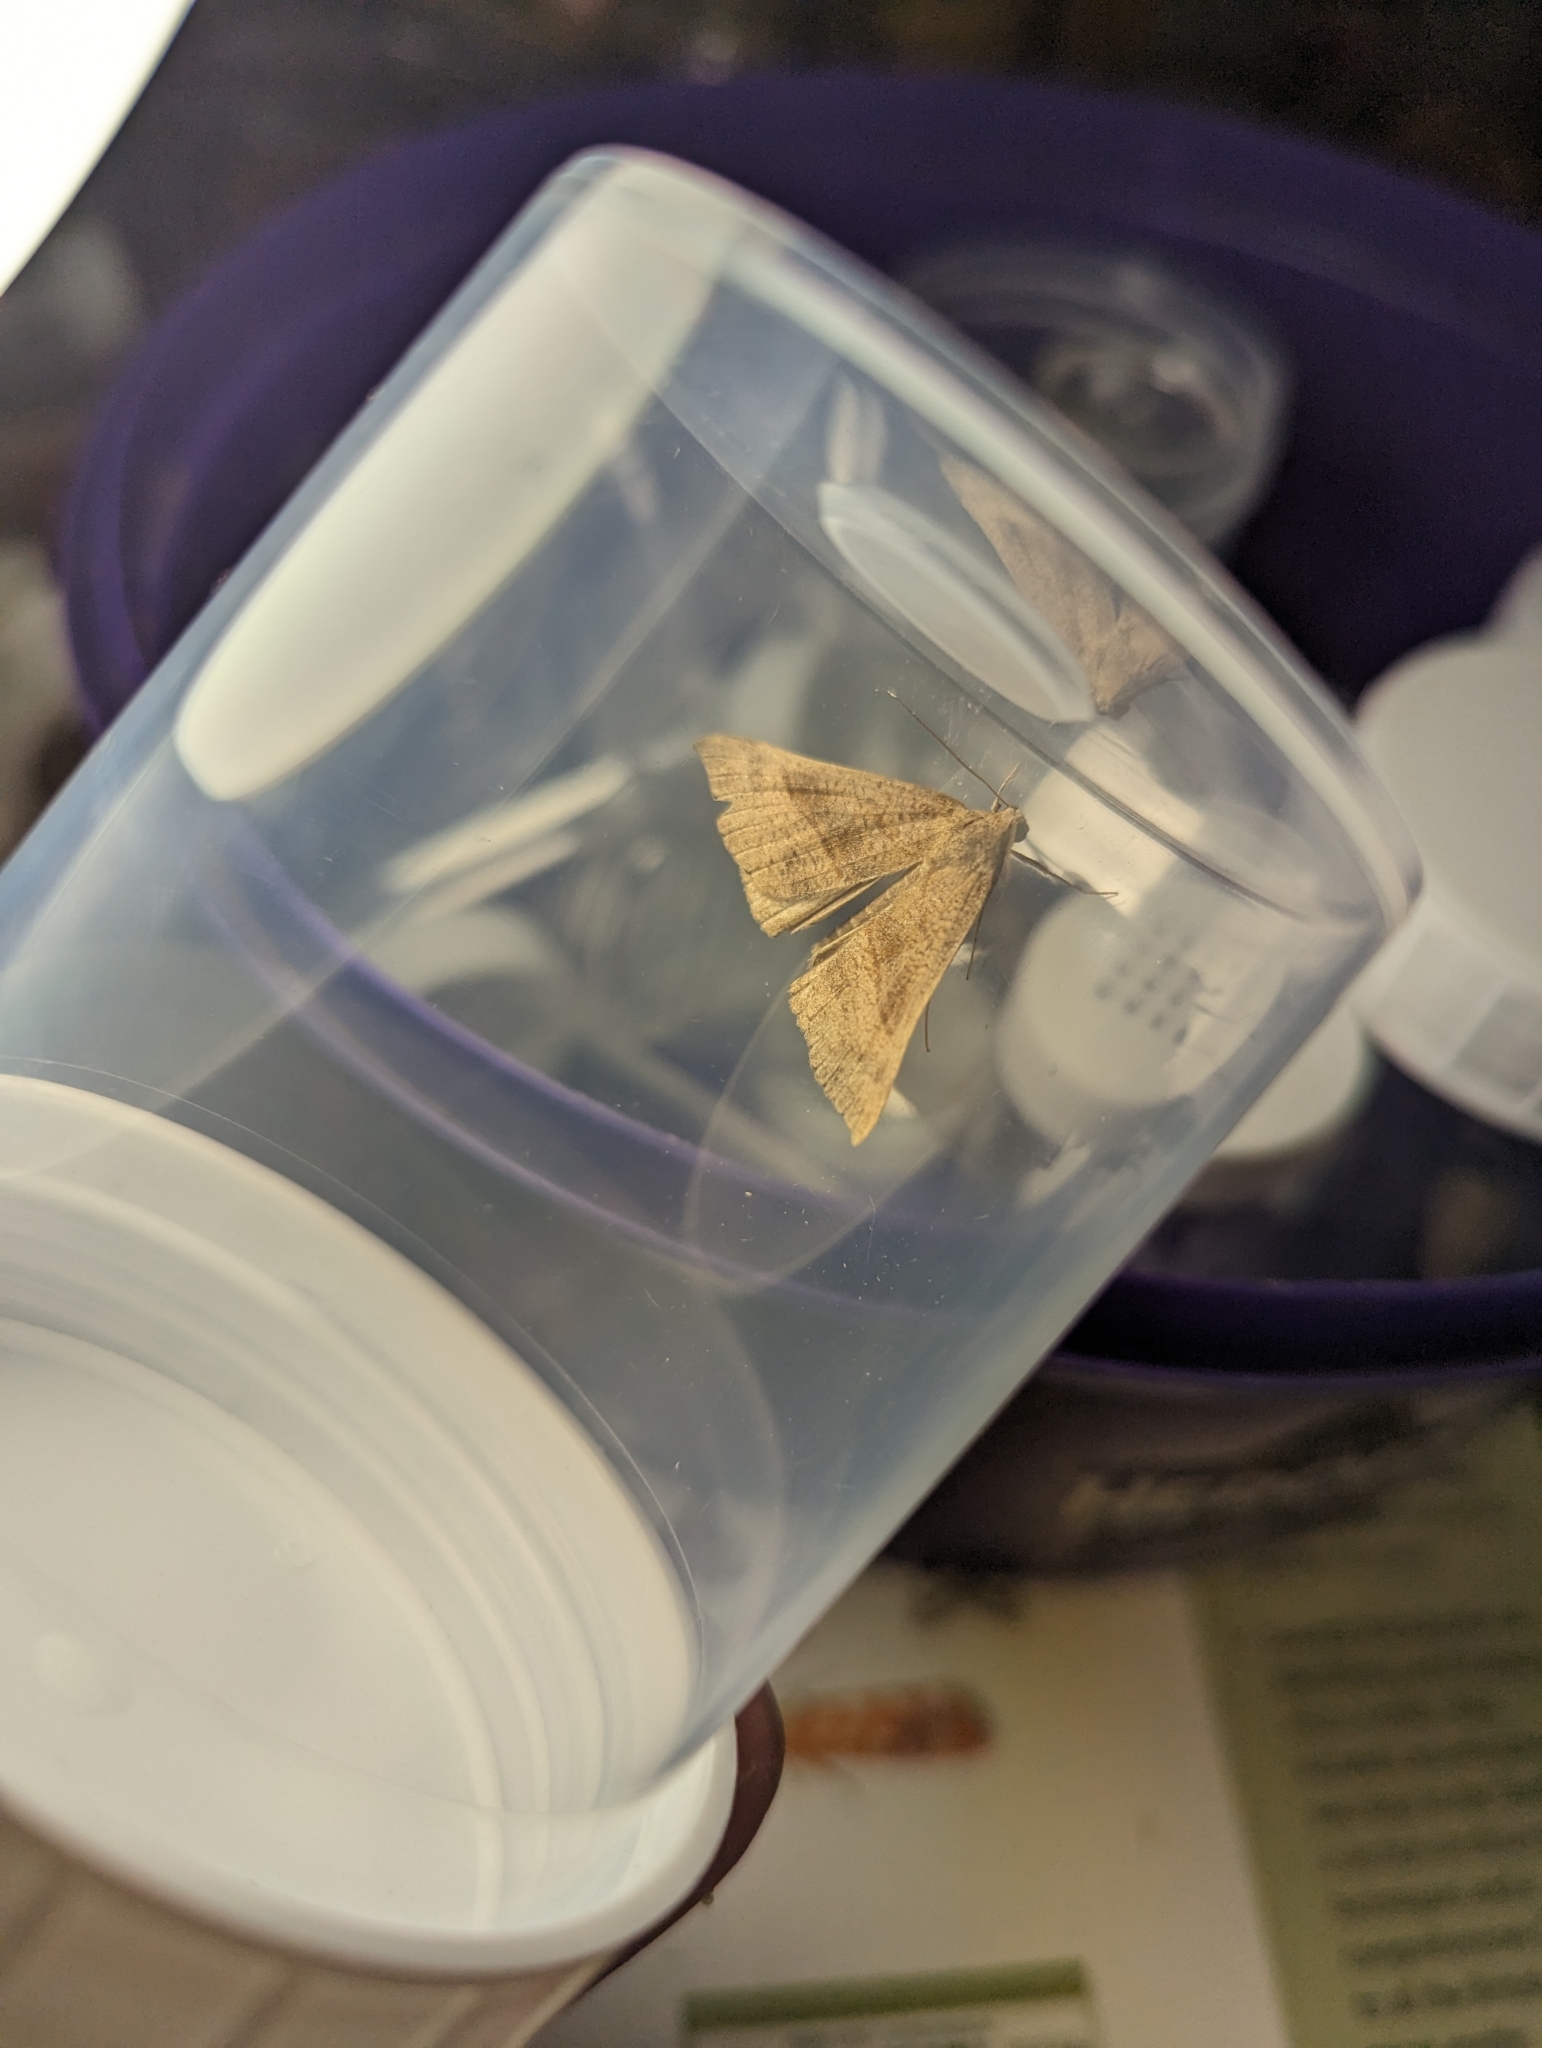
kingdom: Animalia
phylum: Arthropoda
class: Insecta
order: Lepidoptera
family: Erebidae
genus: Hypena
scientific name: Hypena proboscidalis
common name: Snout
